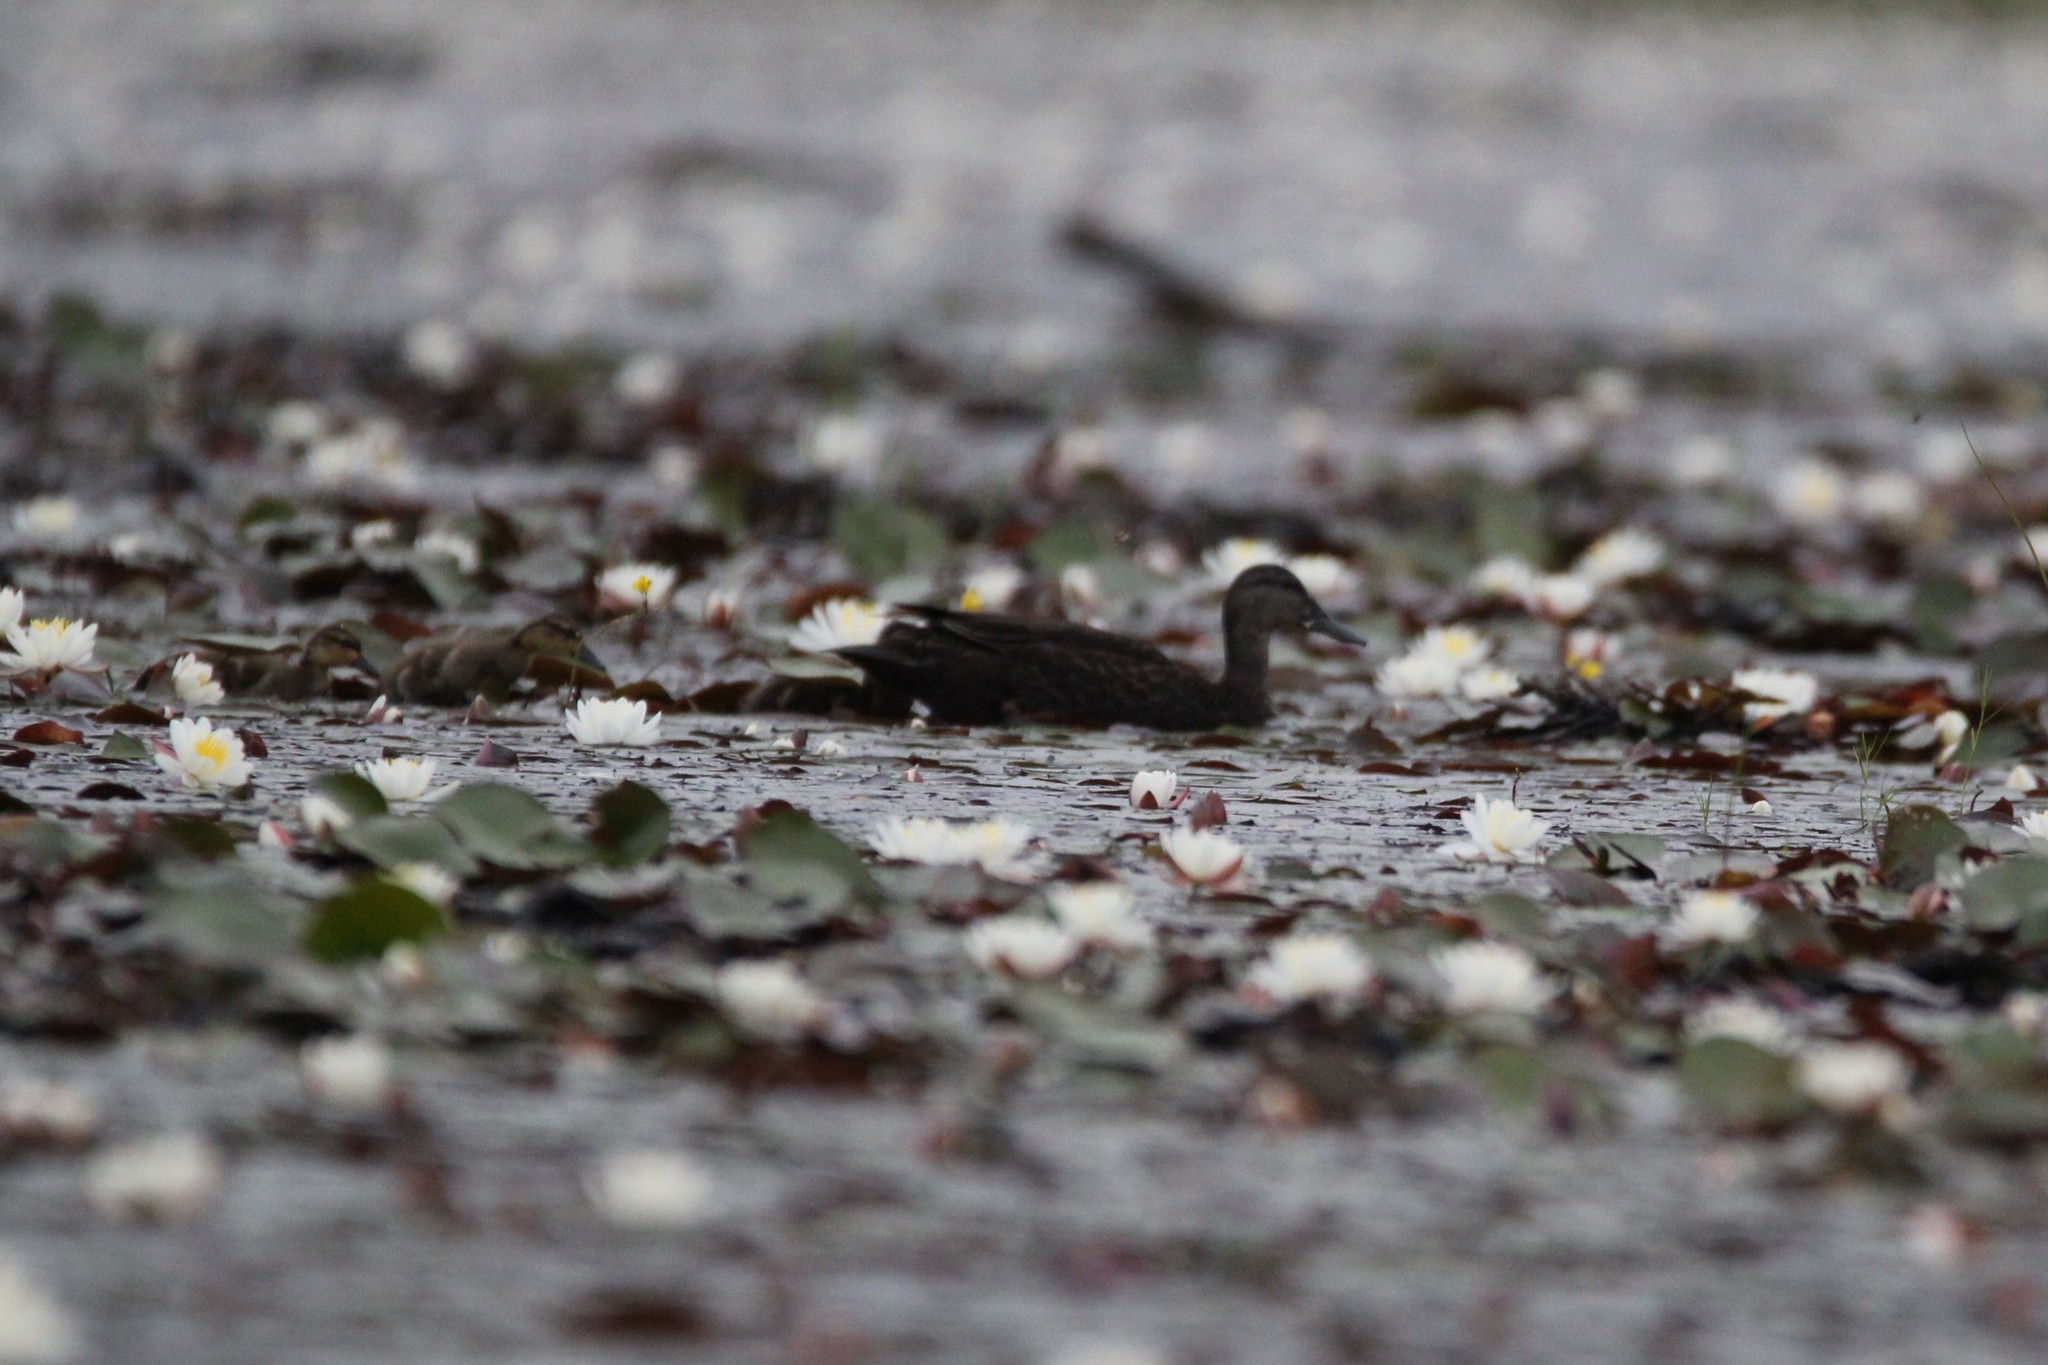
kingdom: Animalia
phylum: Chordata
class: Aves
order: Anseriformes
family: Anatidae
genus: Anas
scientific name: Anas rubripes
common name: American black duck
